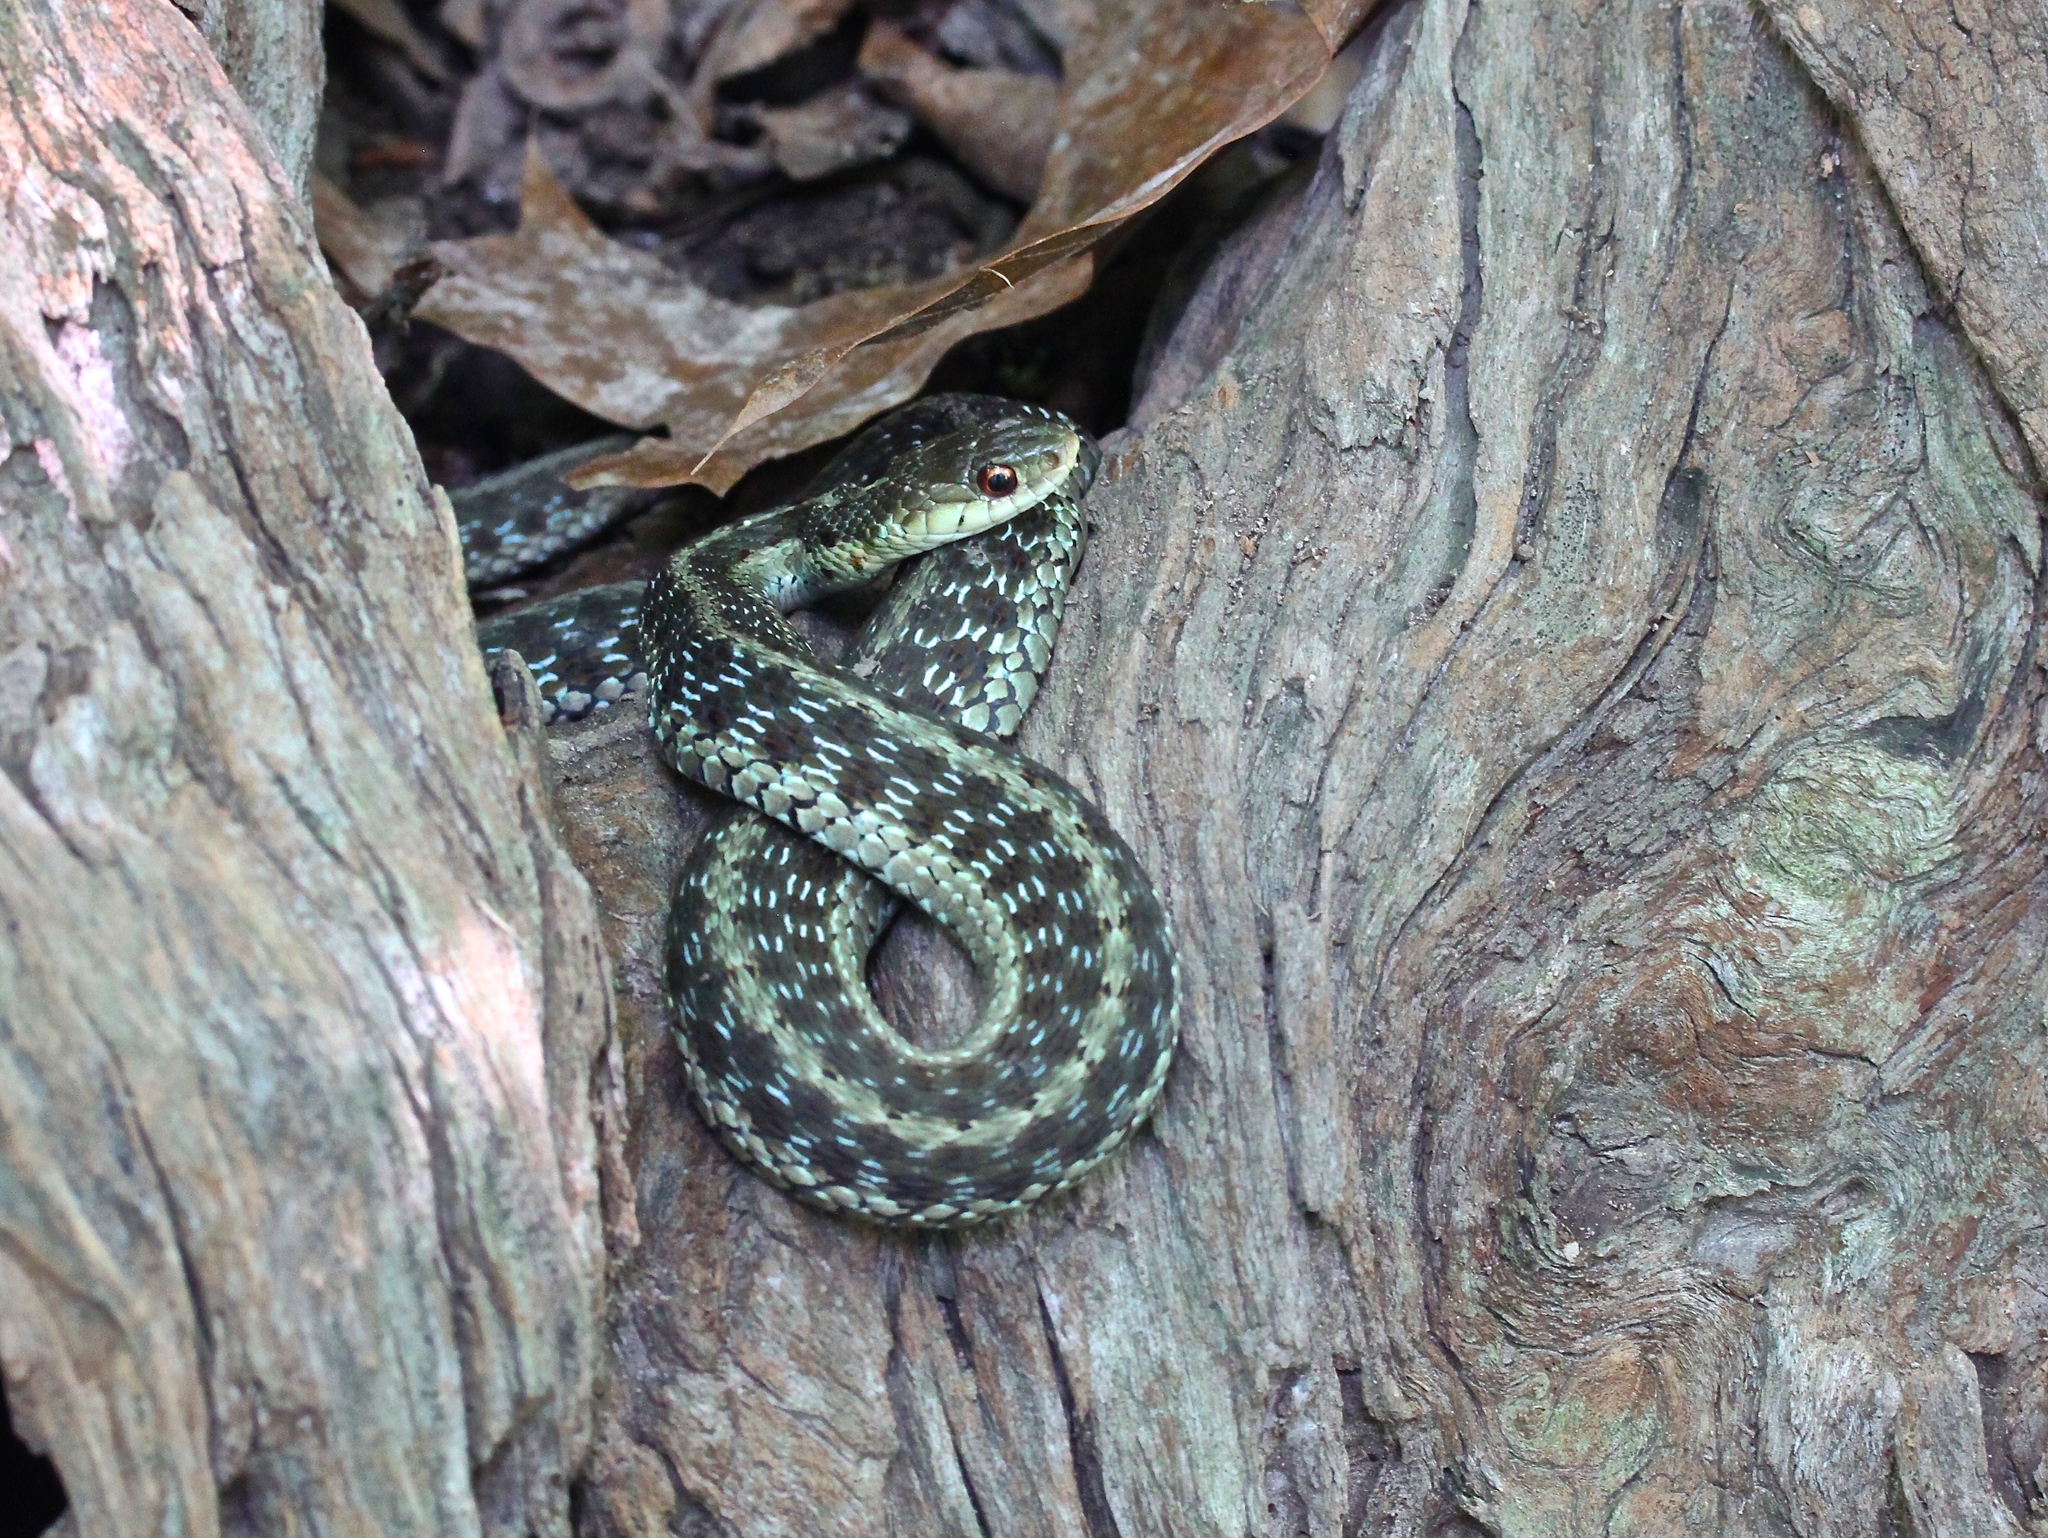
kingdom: Animalia
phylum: Chordata
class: Squamata
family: Colubridae
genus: Thamnophis
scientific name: Thamnophis sirtalis
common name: Common garter snake
